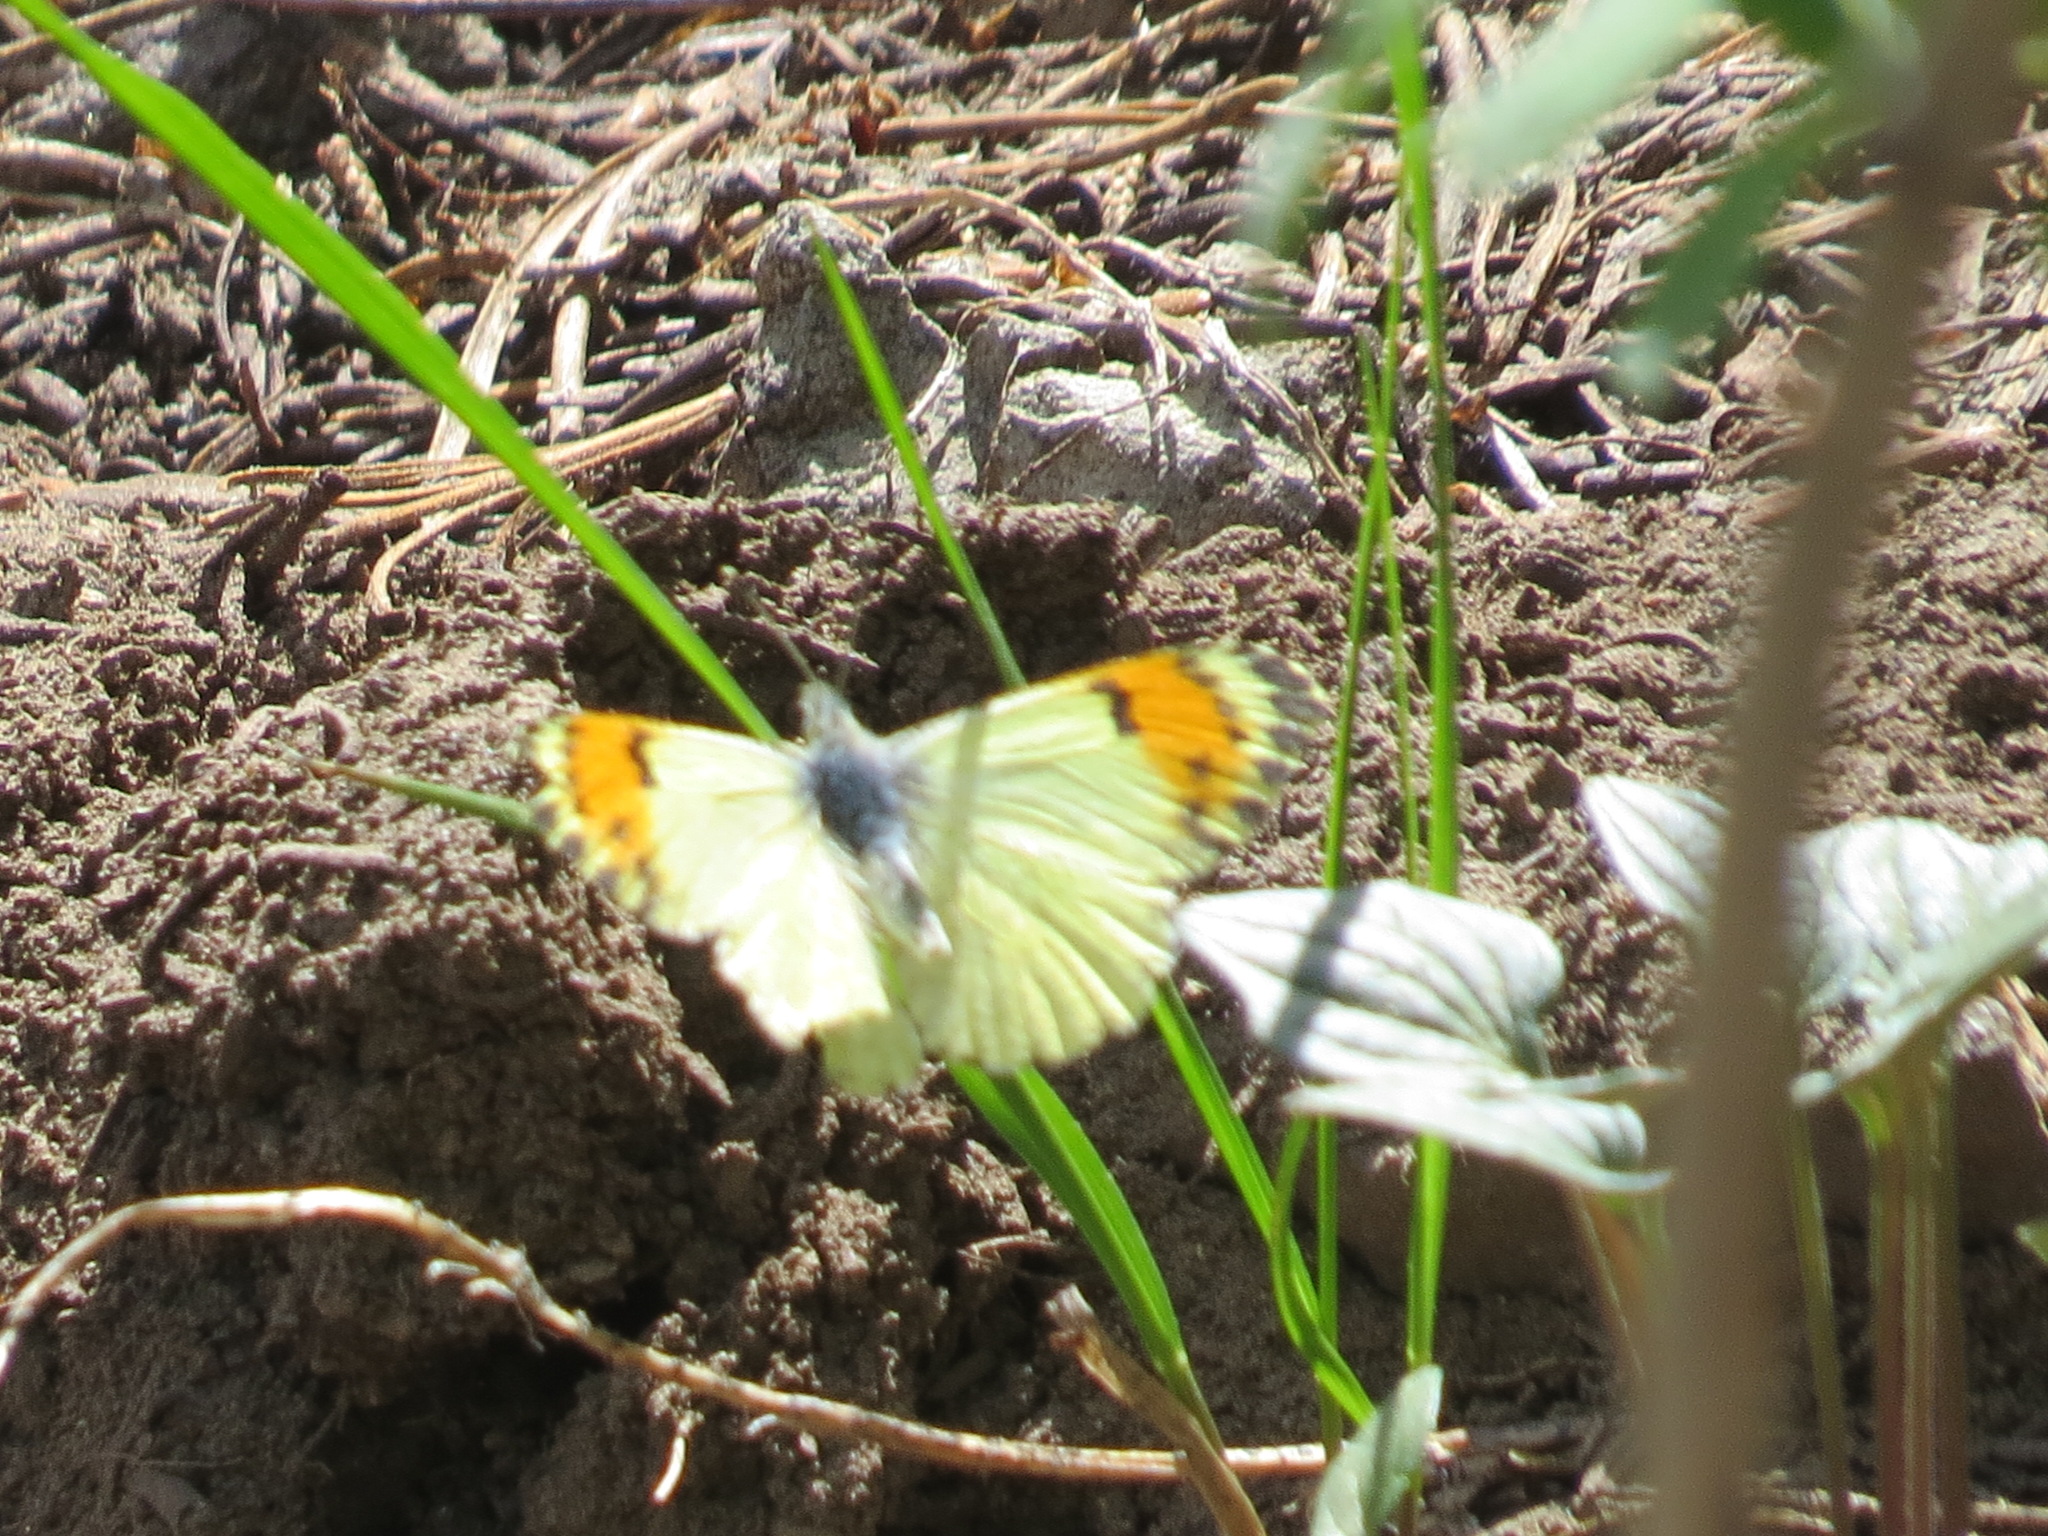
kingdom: Animalia
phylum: Arthropoda
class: Insecta
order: Lepidoptera
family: Pieridae
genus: Anthocharis
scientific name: Anthocharis julia
